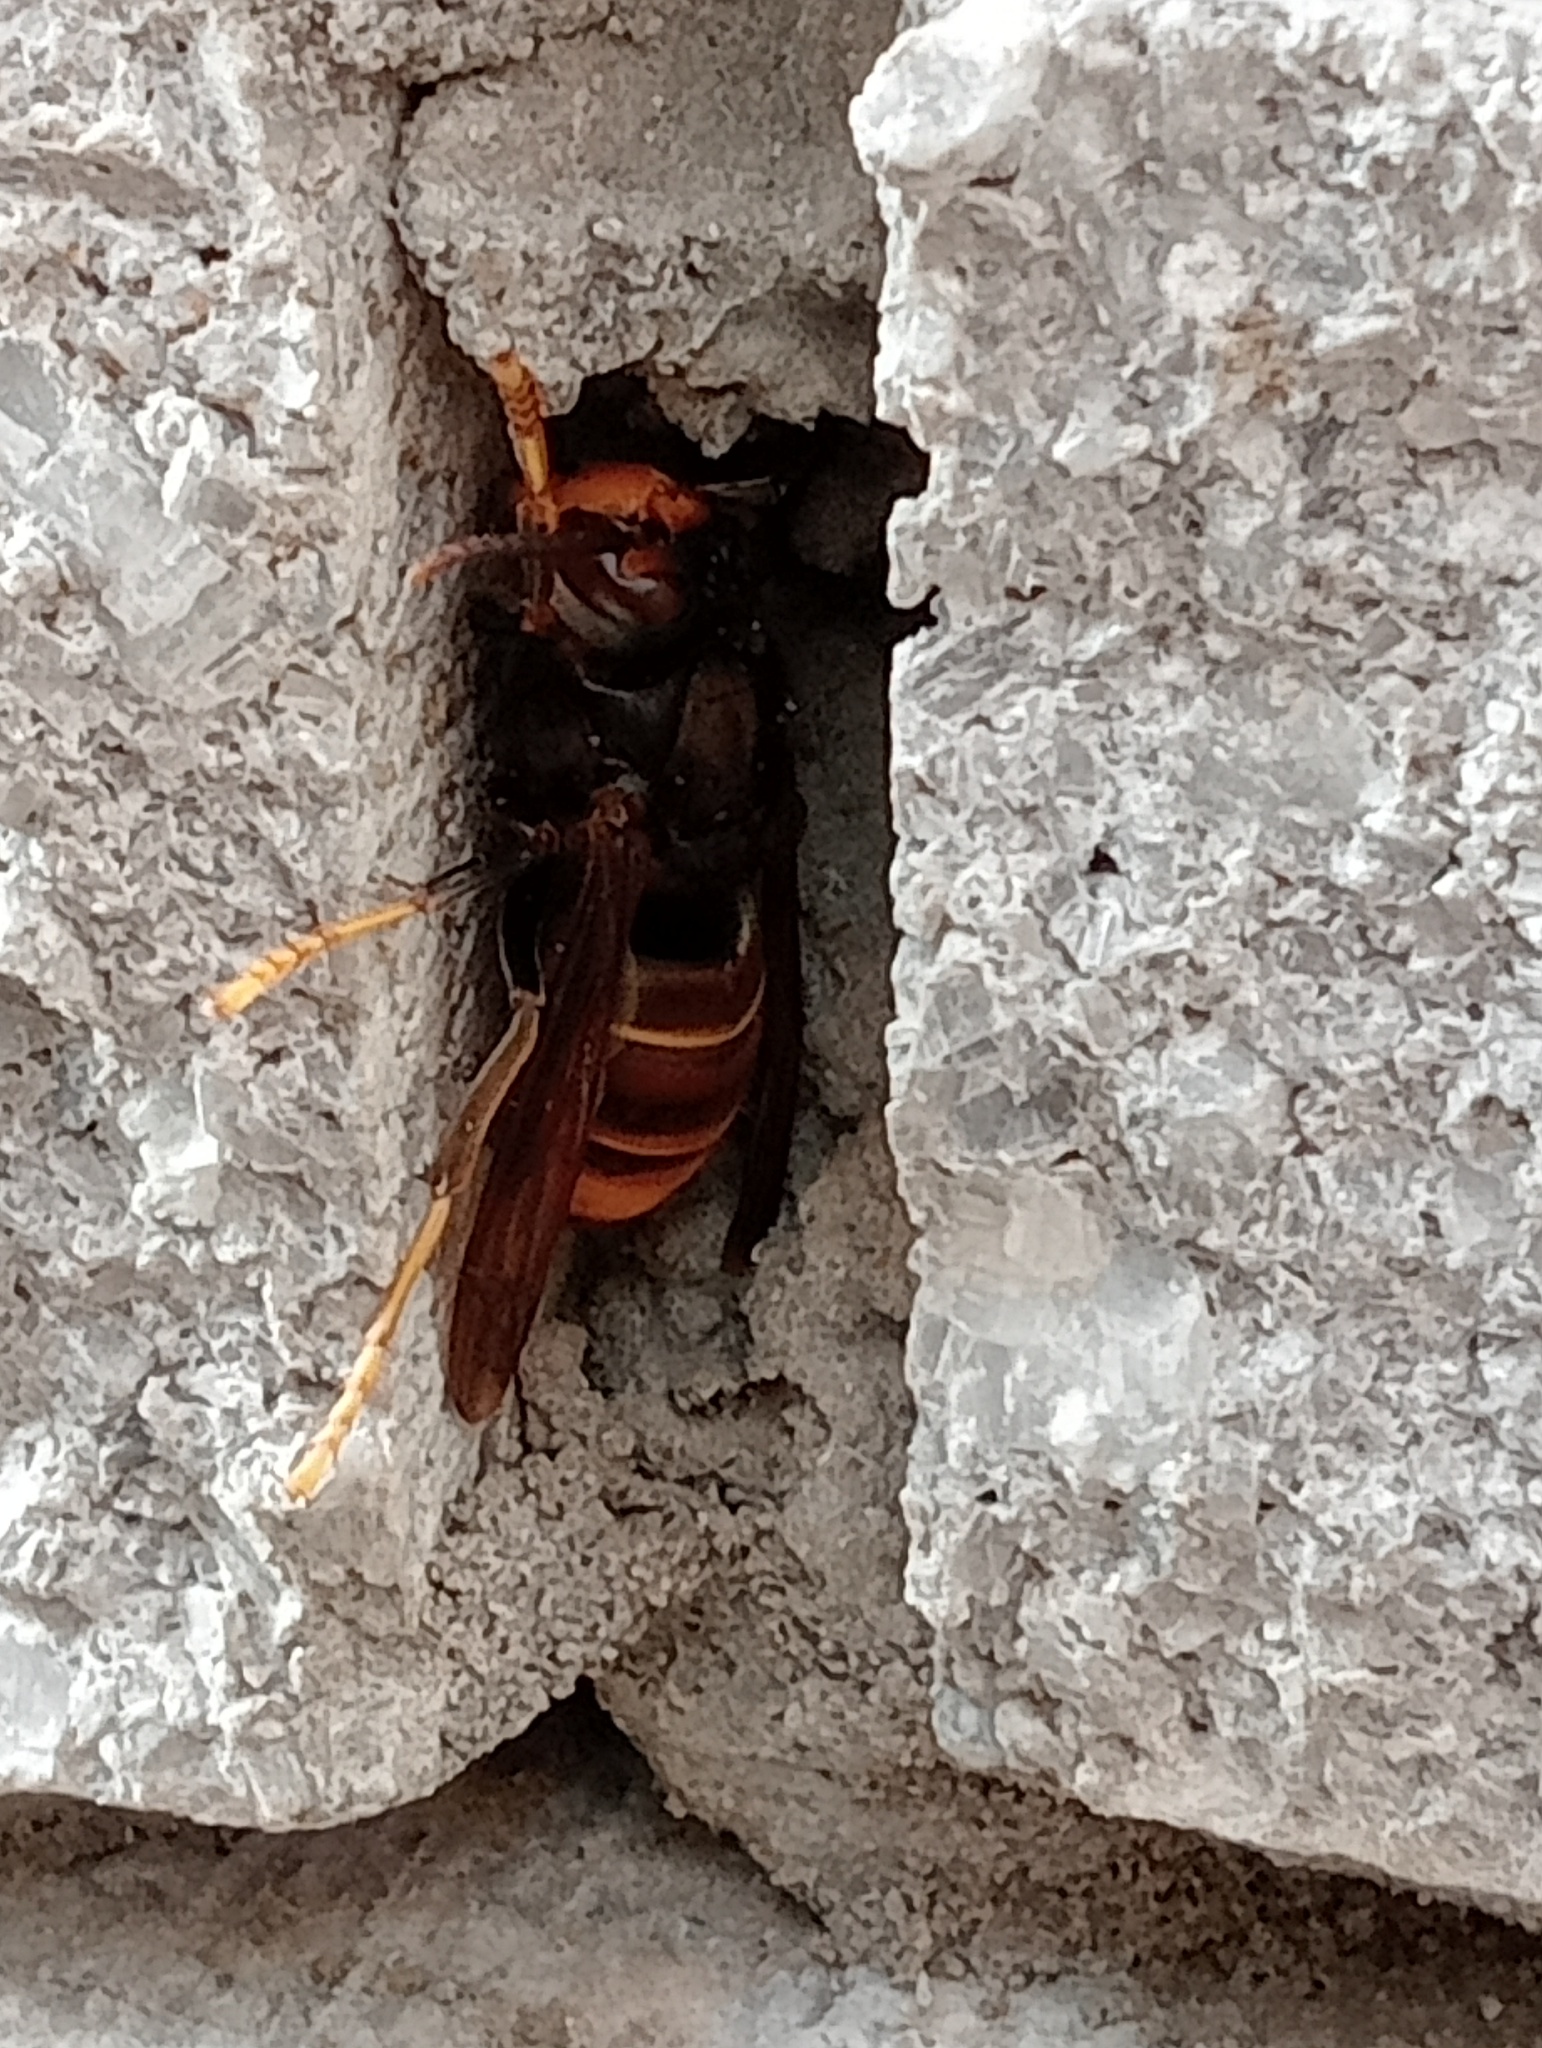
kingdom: Animalia
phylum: Arthropoda
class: Insecta
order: Hymenoptera
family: Vespidae
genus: Vespa
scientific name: Vespa velutina
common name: Asian hornet
